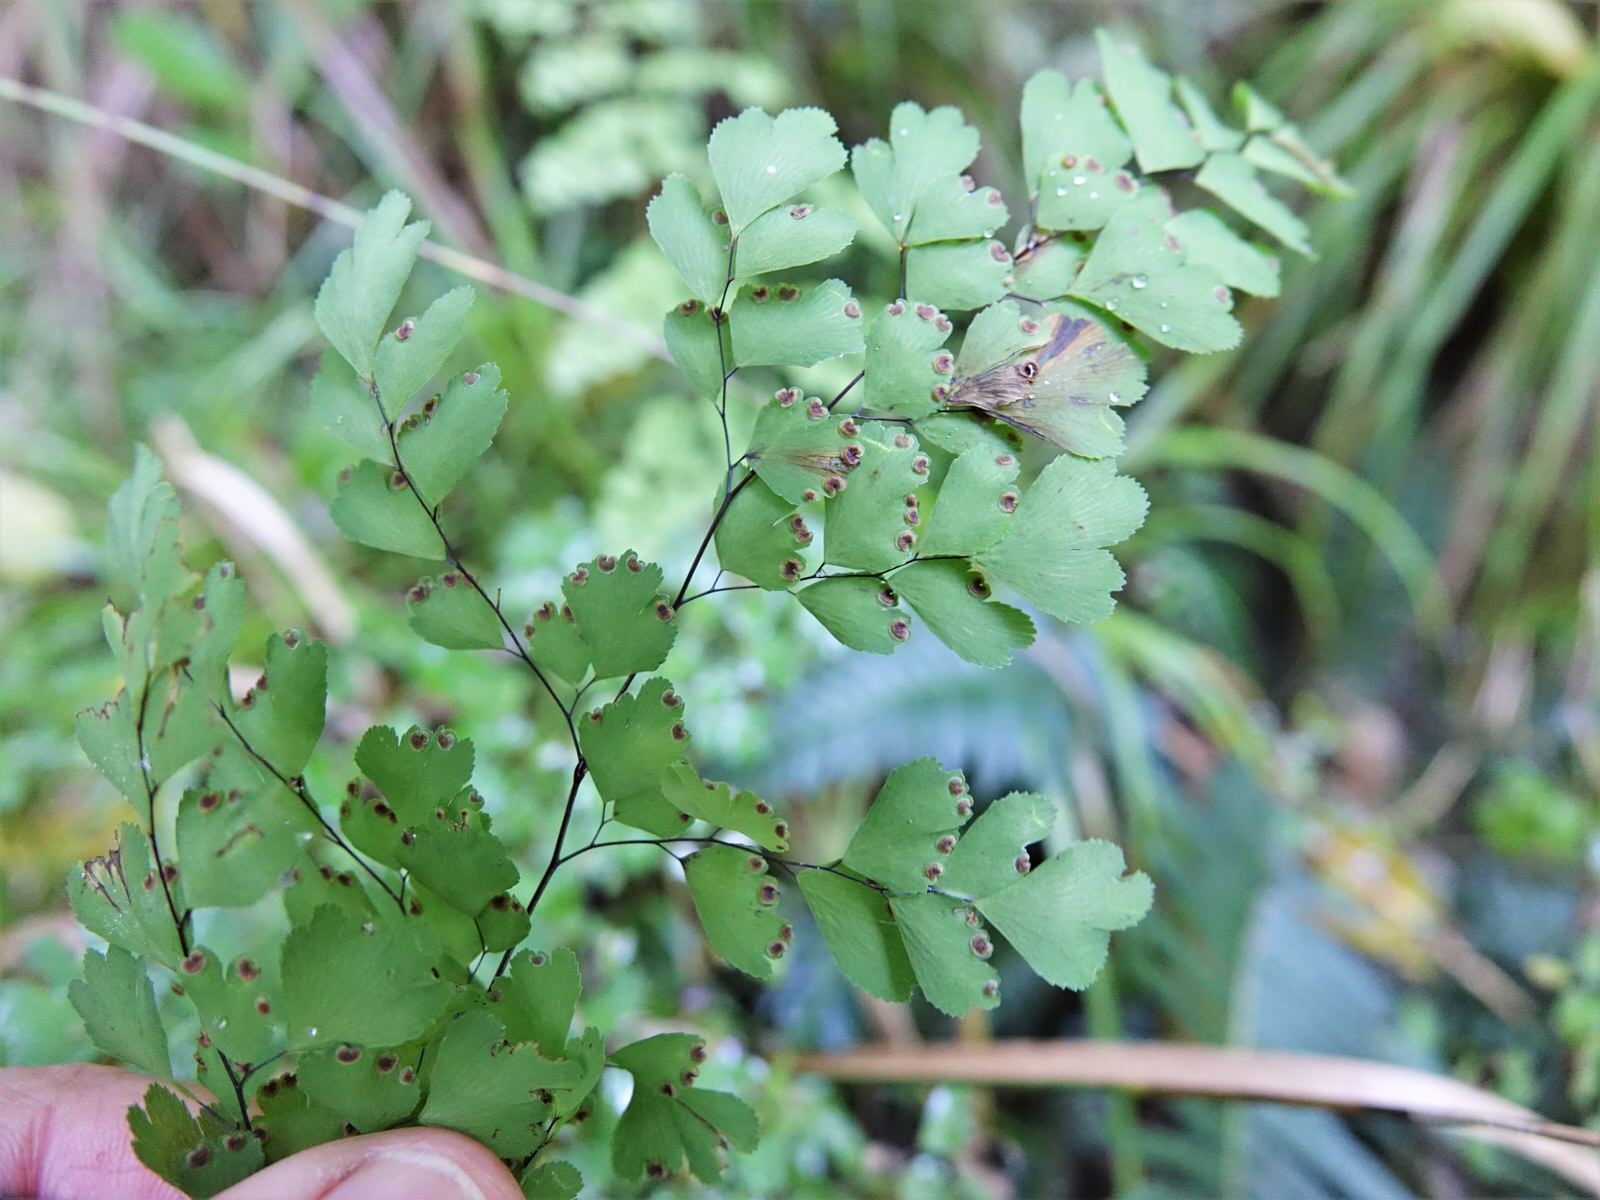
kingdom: Plantae
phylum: Tracheophyta
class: Polypodiopsida
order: Polypodiales
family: Pteridaceae
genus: Adiantum
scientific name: Adiantum raddianum
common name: Delta maidenhair fern
